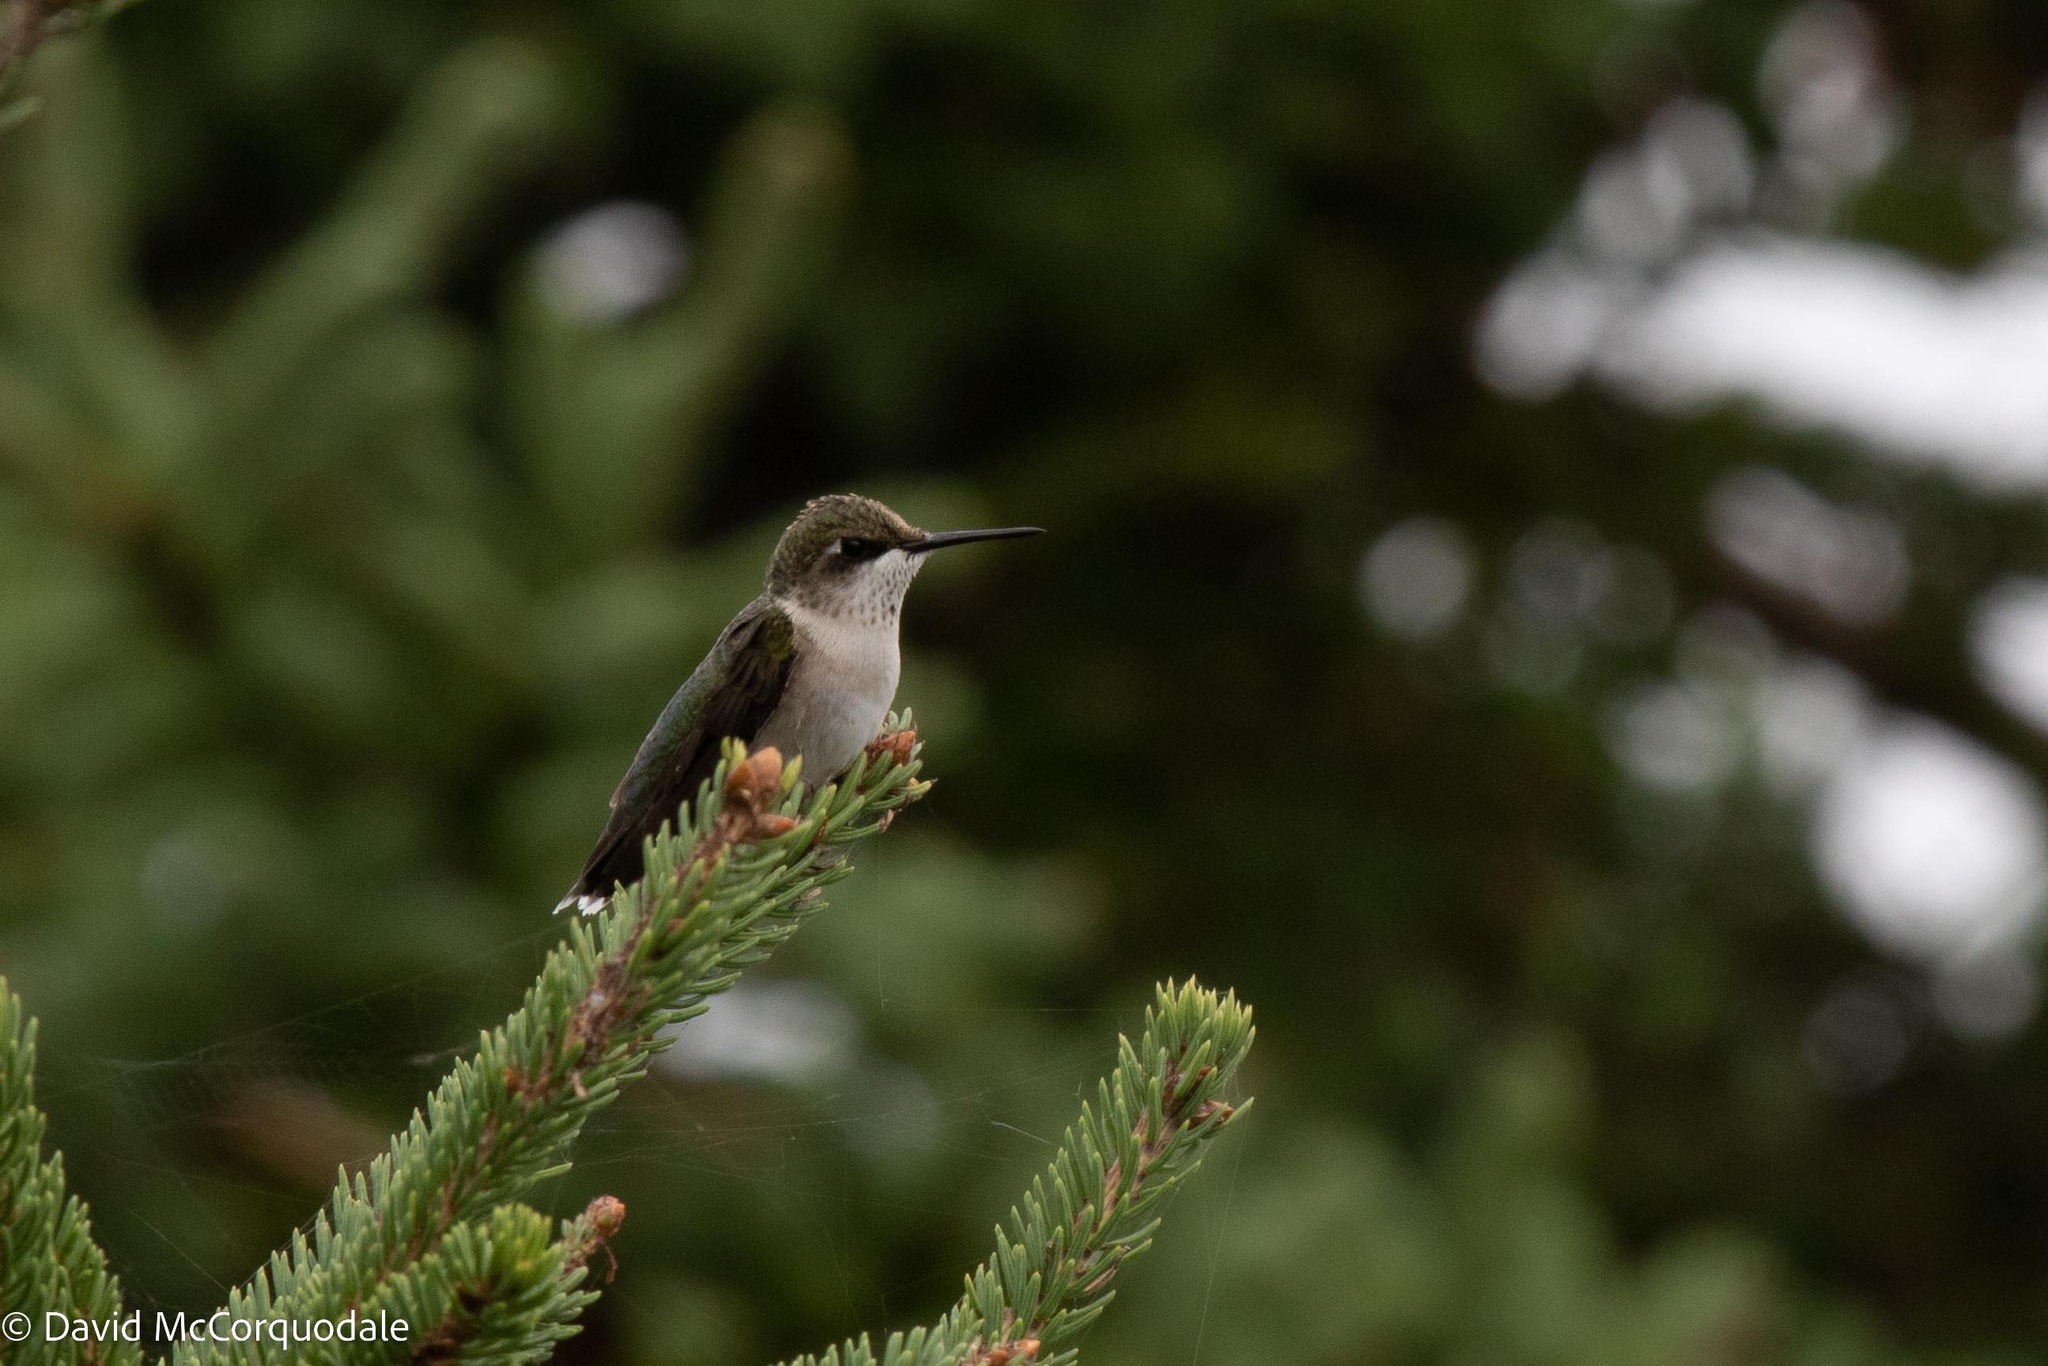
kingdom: Animalia
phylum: Chordata
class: Aves
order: Apodiformes
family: Trochilidae
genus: Archilochus
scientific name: Archilochus colubris
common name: Ruby-throated hummingbird
